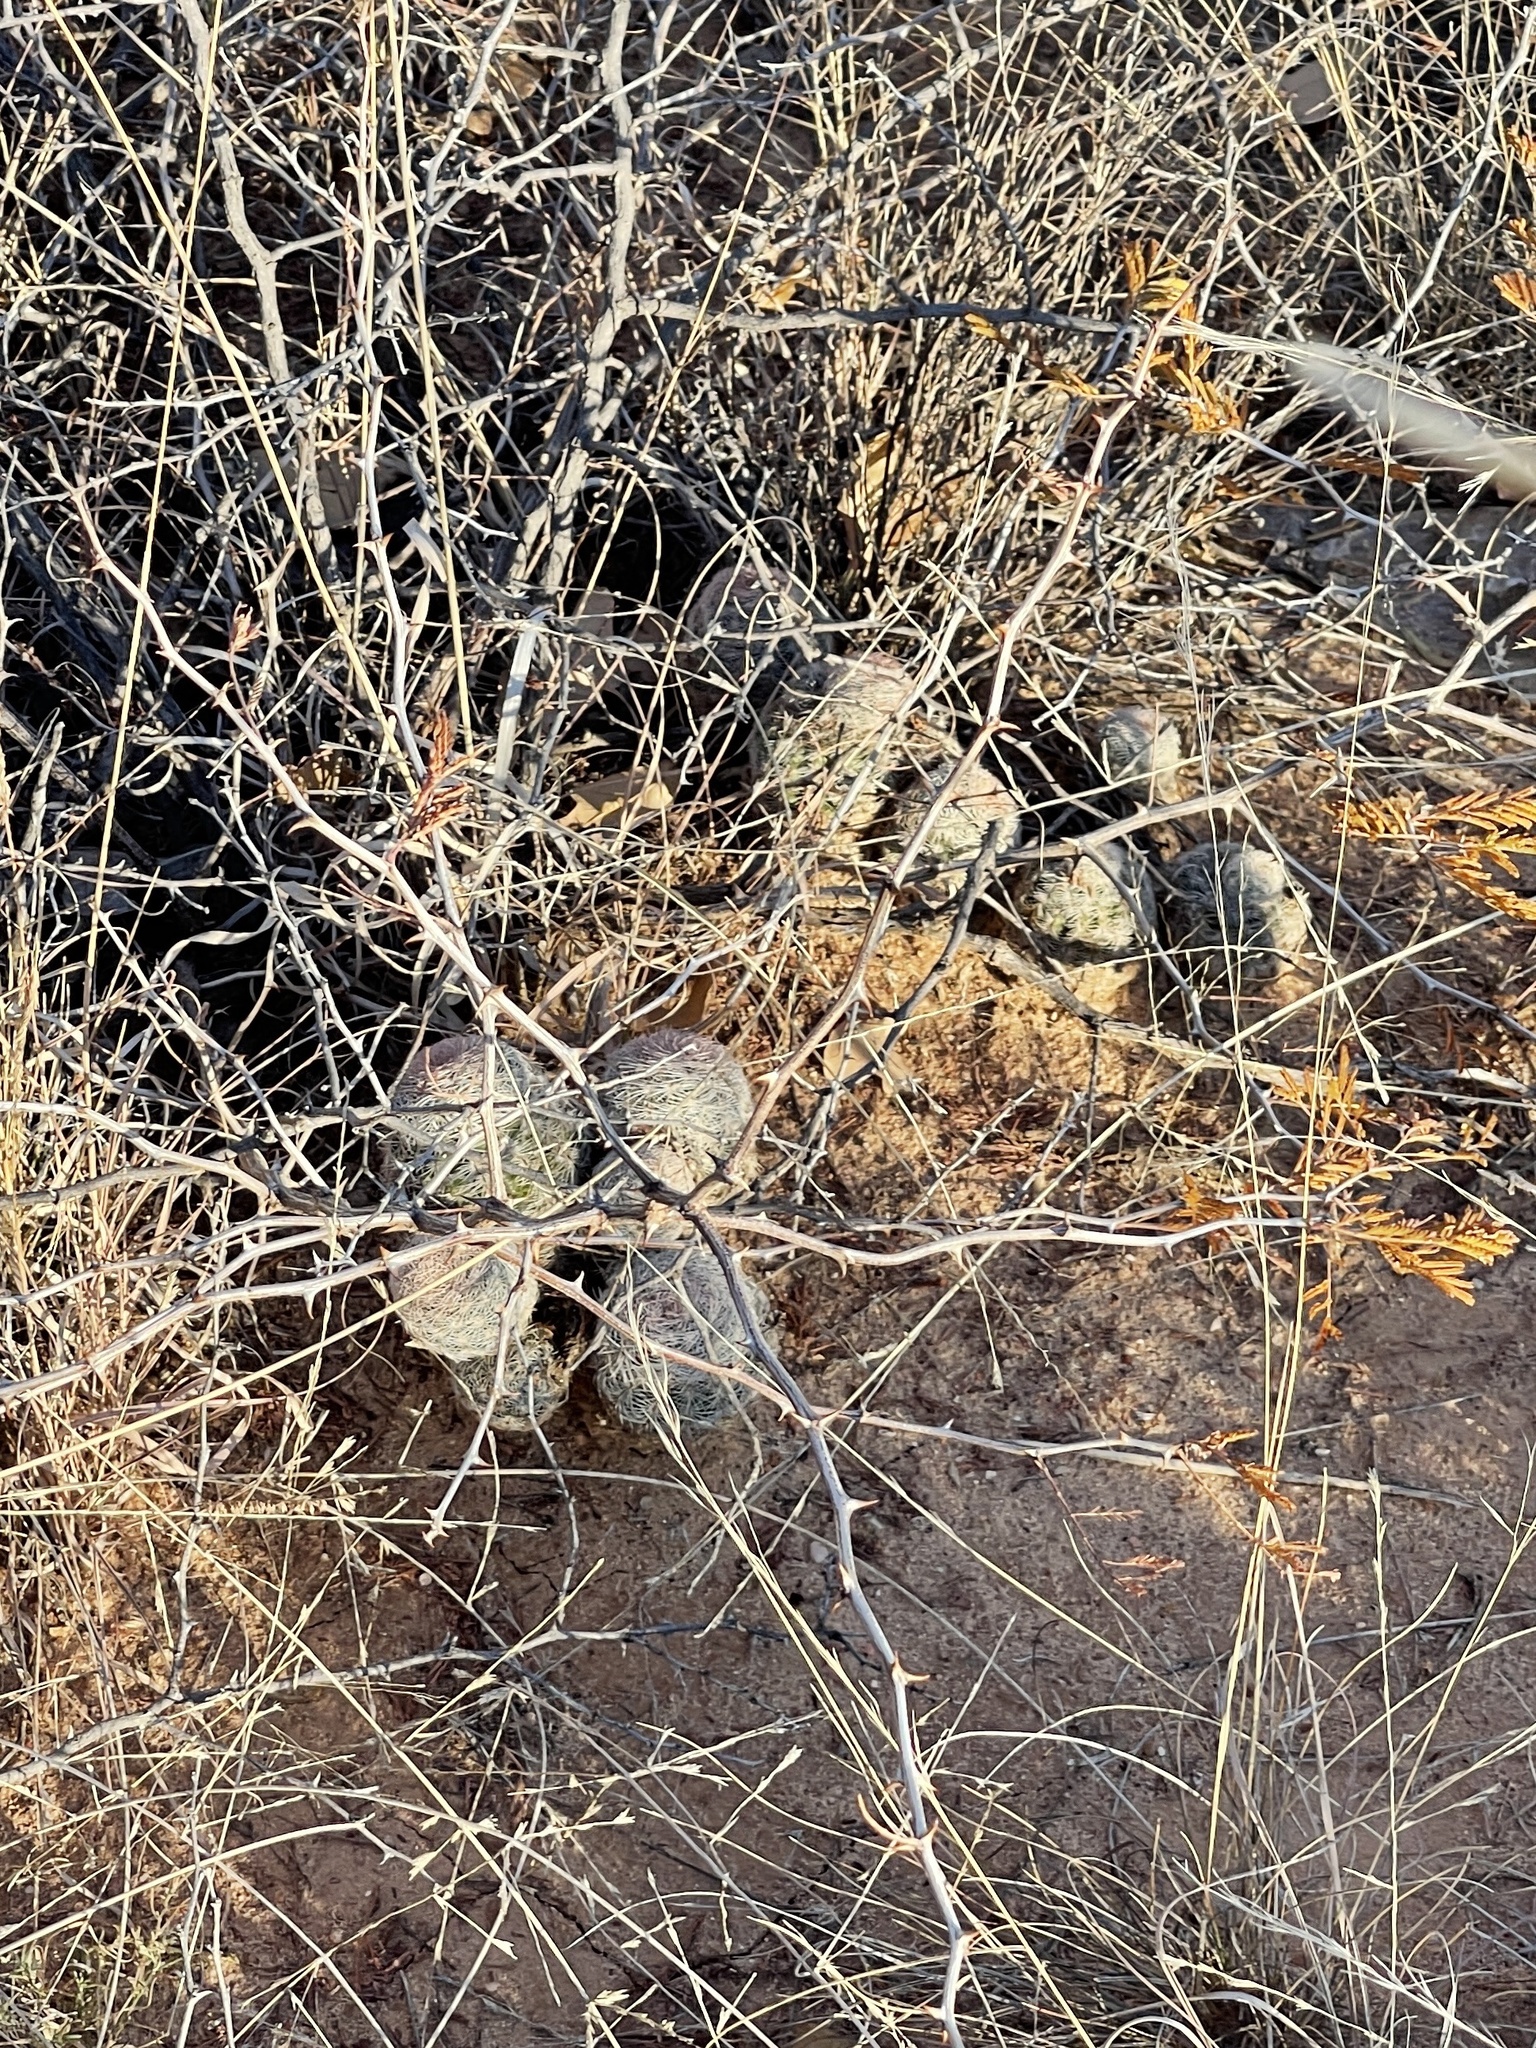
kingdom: Plantae
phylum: Tracheophyta
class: Magnoliopsida
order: Caryophyllales
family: Cactaceae
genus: Echinocereus
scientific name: Echinocereus reichenbachii
